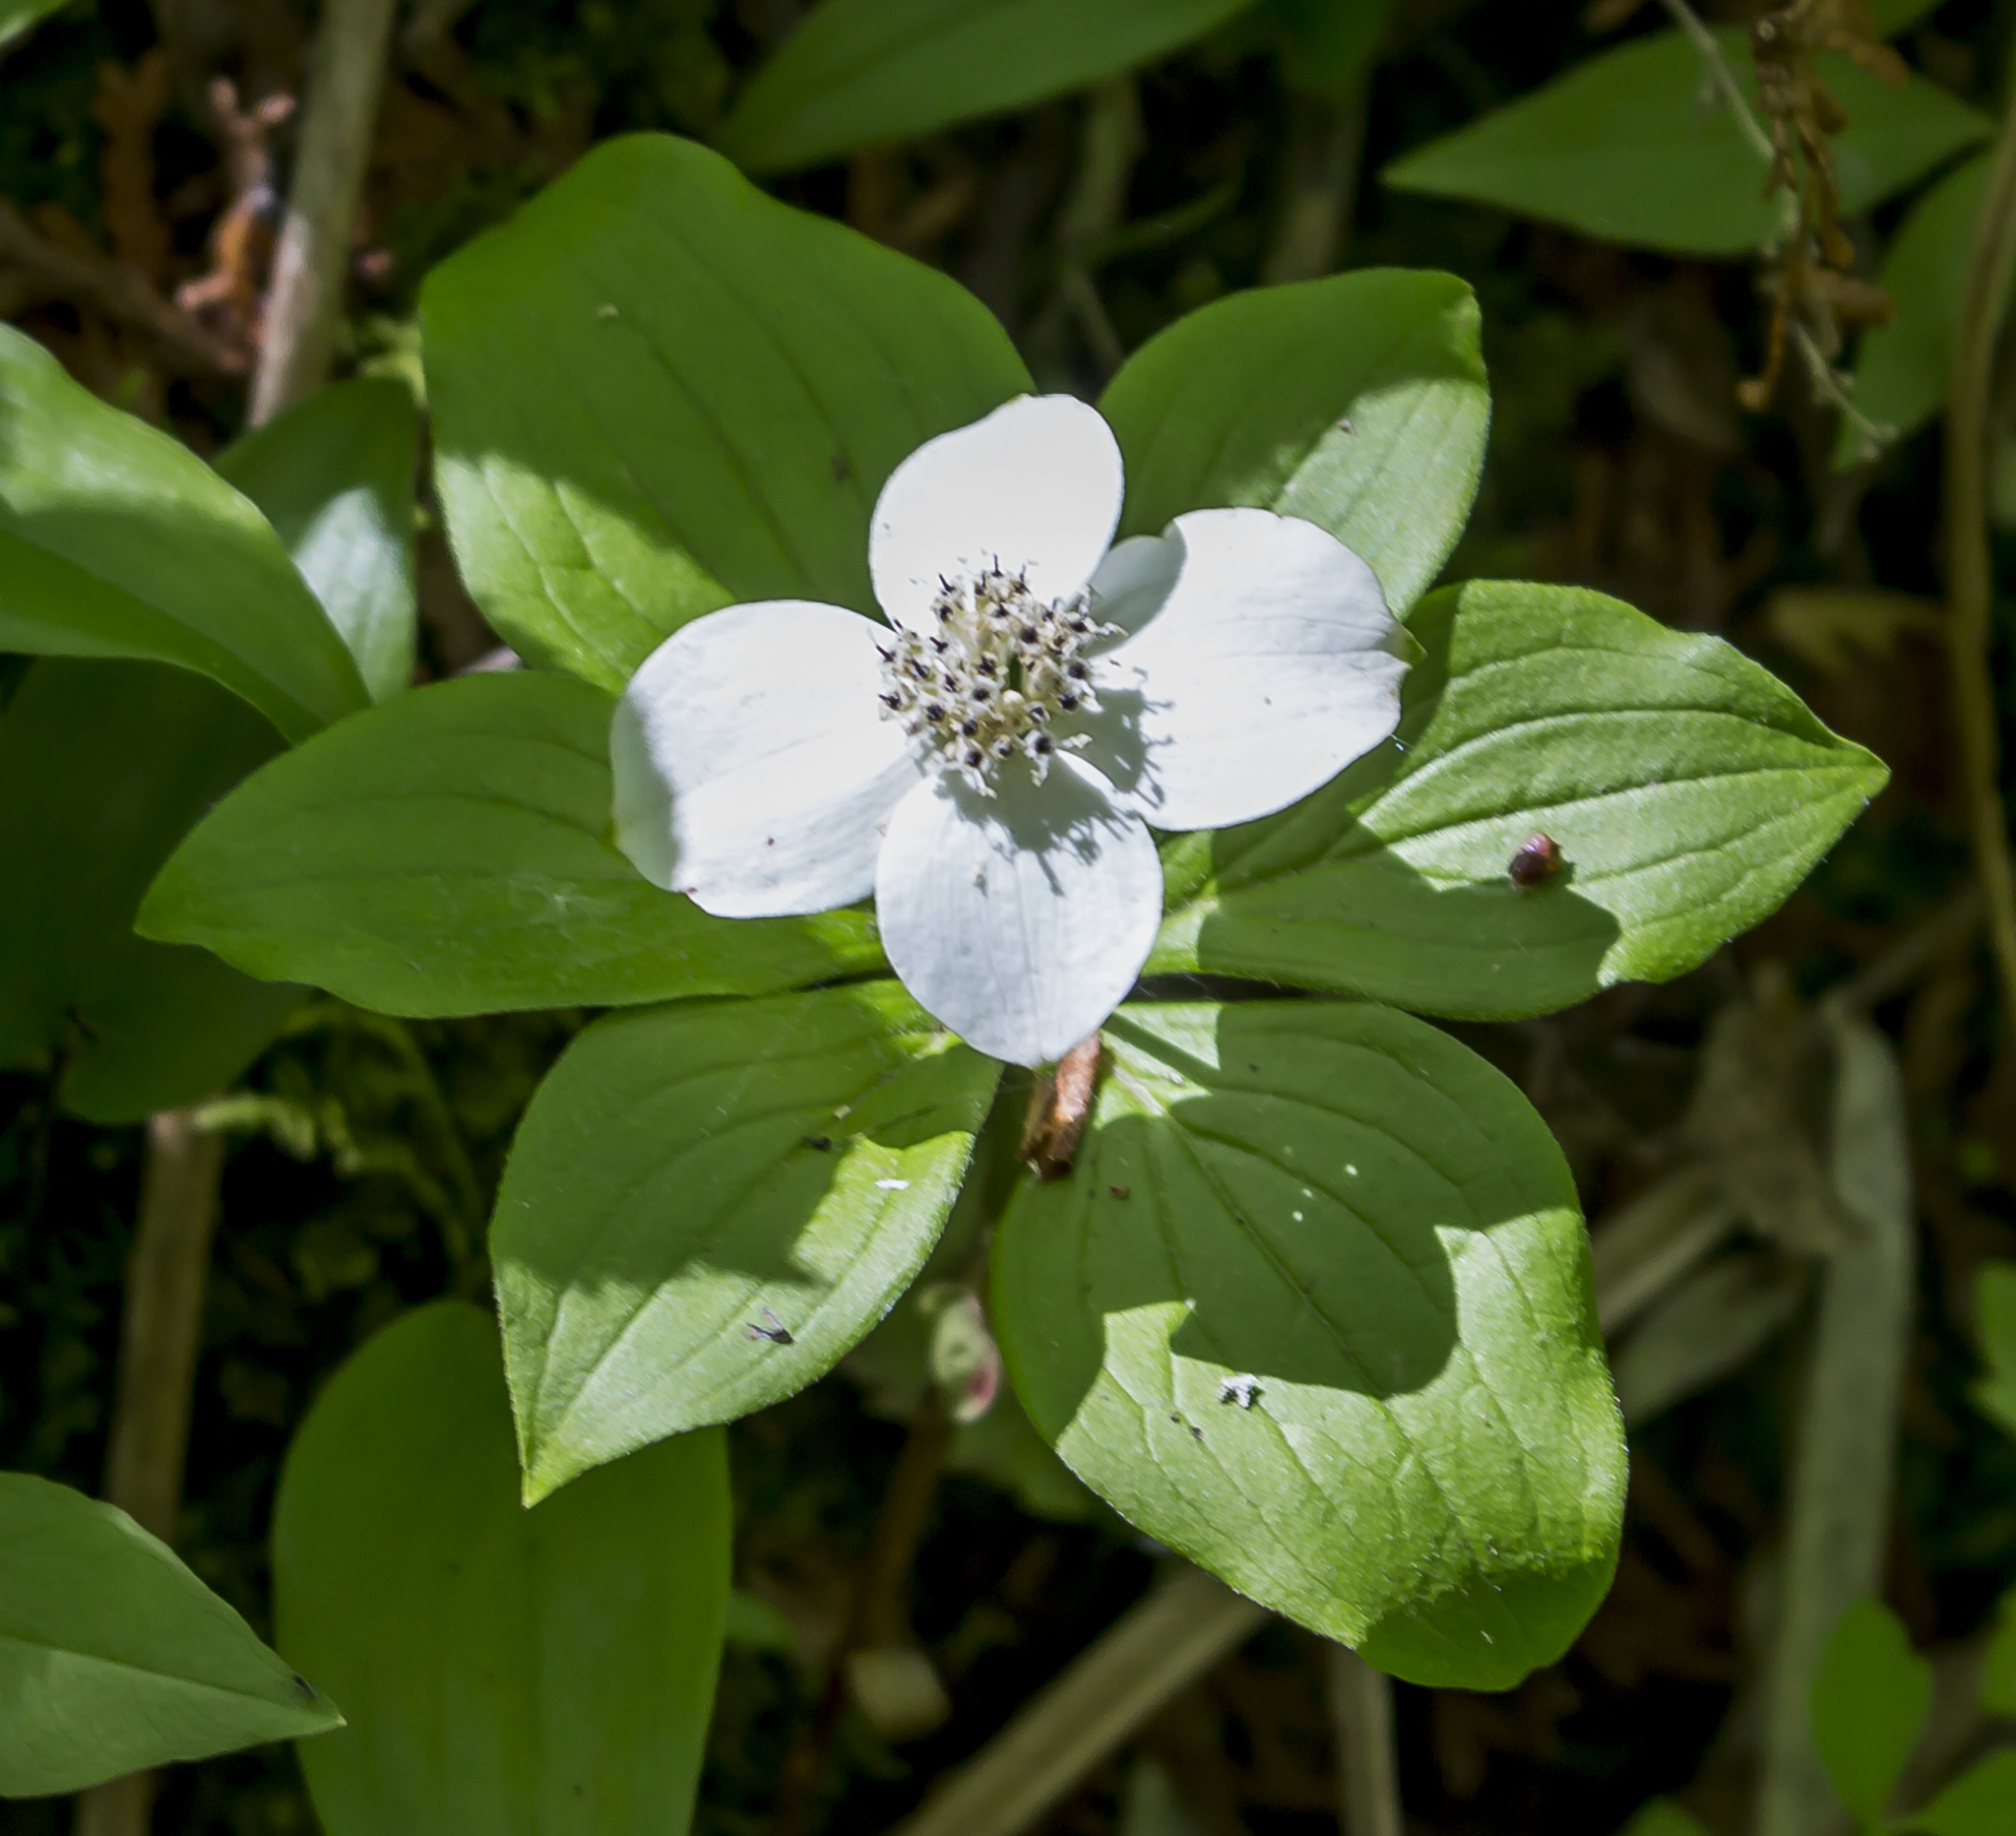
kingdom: Plantae
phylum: Tracheophyta
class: Magnoliopsida
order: Cornales
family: Cornaceae
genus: Cornus
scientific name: Cornus canadensis
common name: Creeping dogwood
